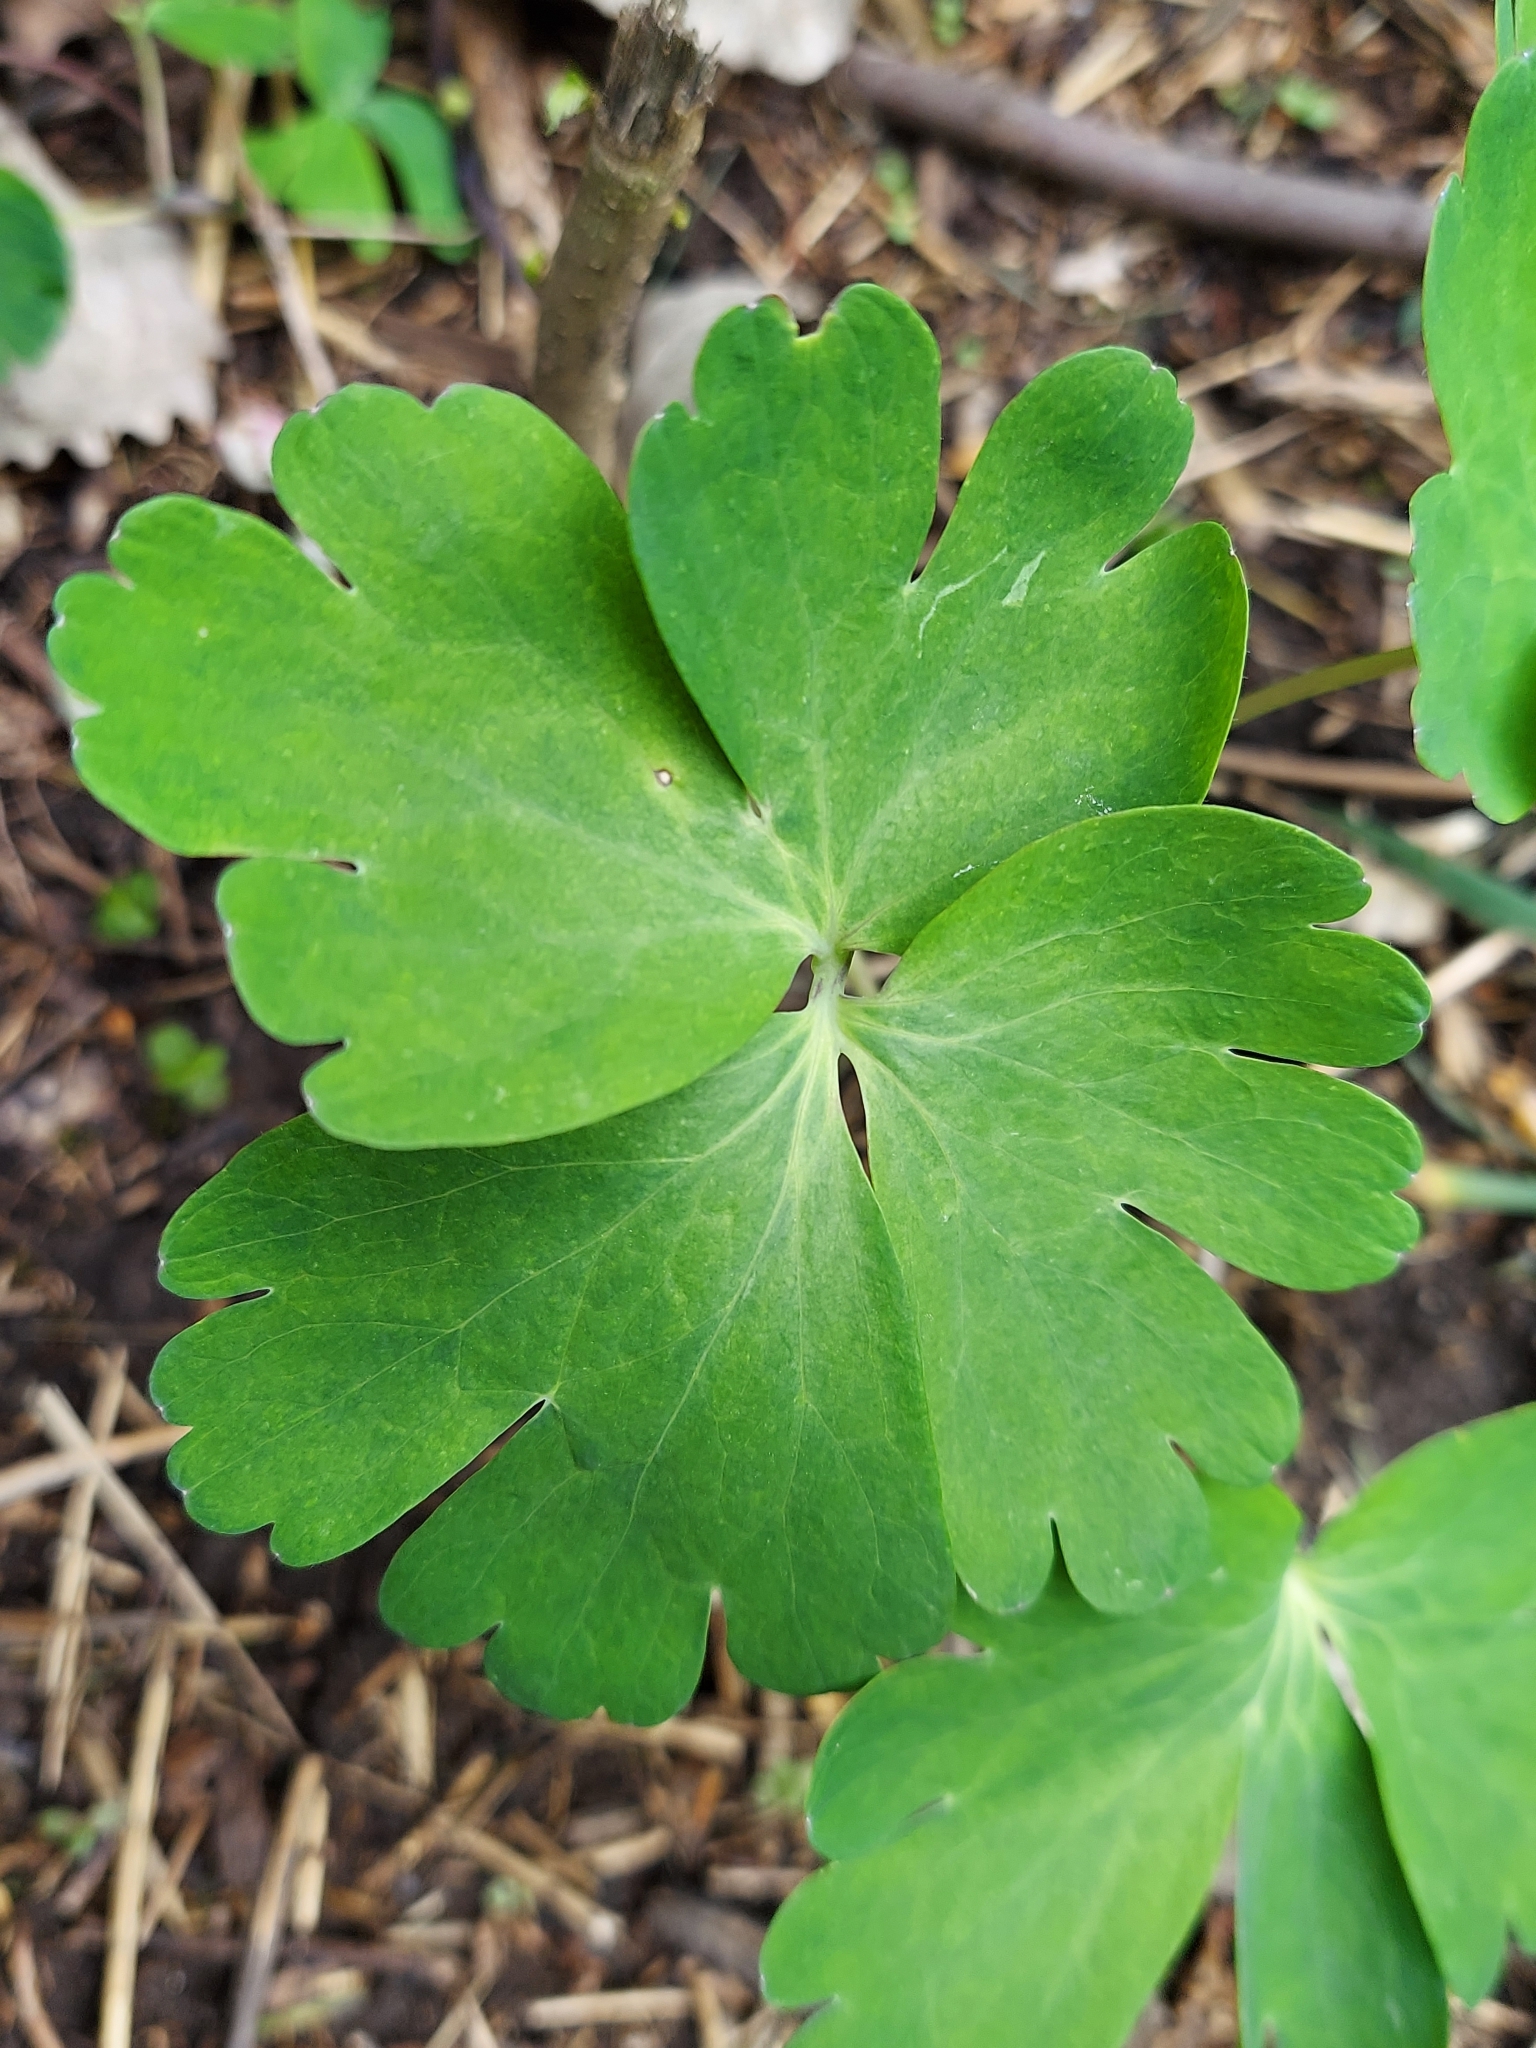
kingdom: Plantae
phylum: Tracheophyta
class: Magnoliopsida
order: Ranunculales
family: Ranunculaceae
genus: Aquilegia
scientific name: Aquilegia canadensis
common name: American columbine
